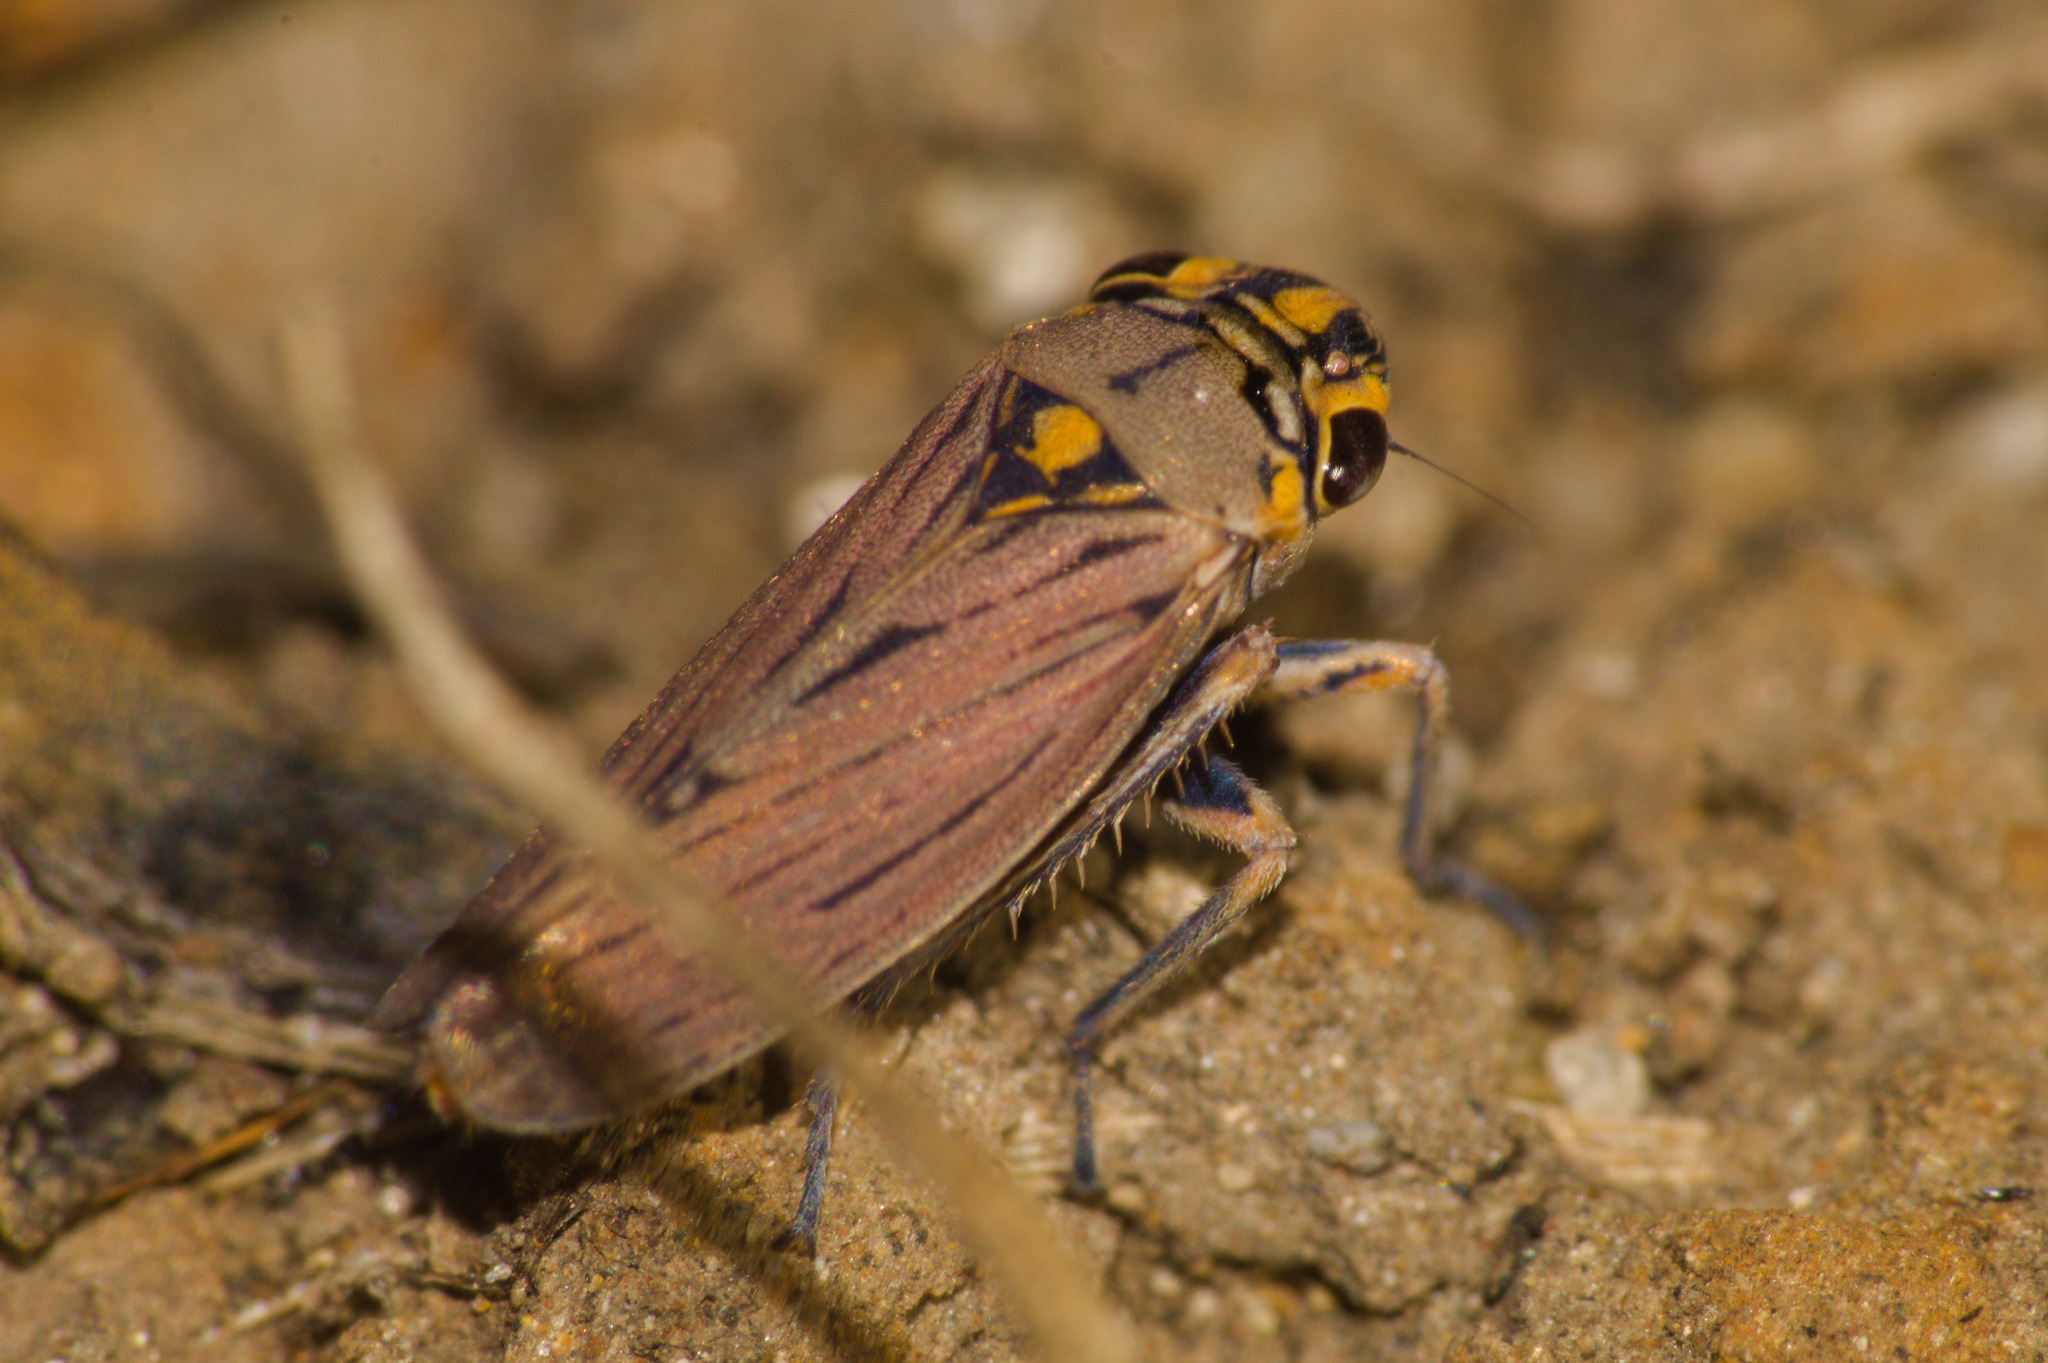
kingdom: Animalia
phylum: Arthropoda
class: Insecta
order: Hemiptera
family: Cicadellidae
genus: Dechacona
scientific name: Dechacona missionum
